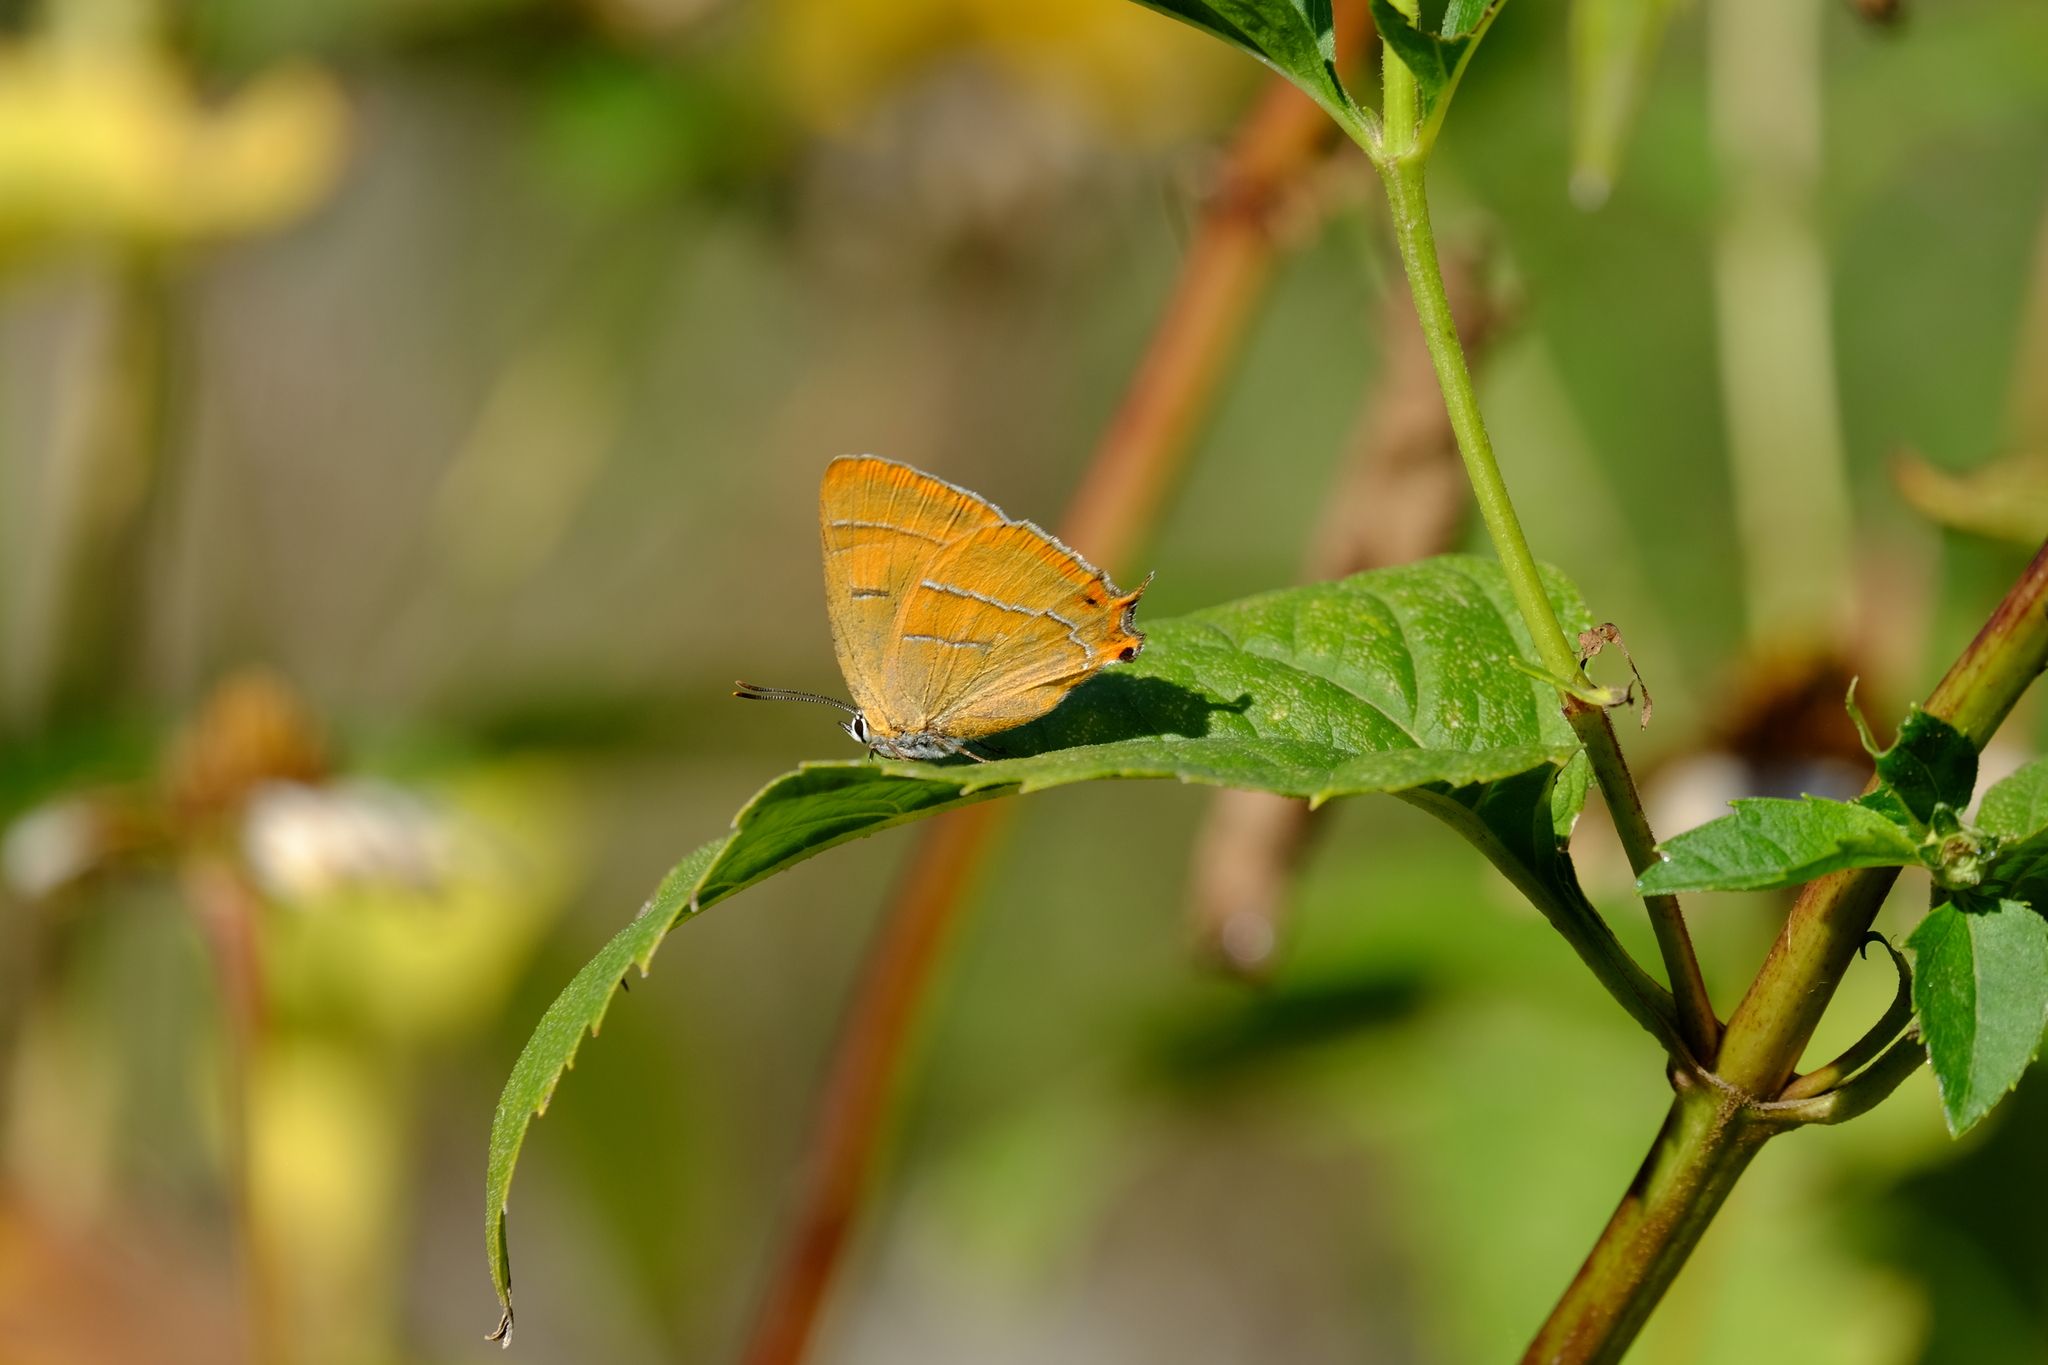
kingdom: Animalia
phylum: Arthropoda
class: Insecta
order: Lepidoptera
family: Lycaenidae
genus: Thecla
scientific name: Thecla betulae
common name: Brown hairstreak
